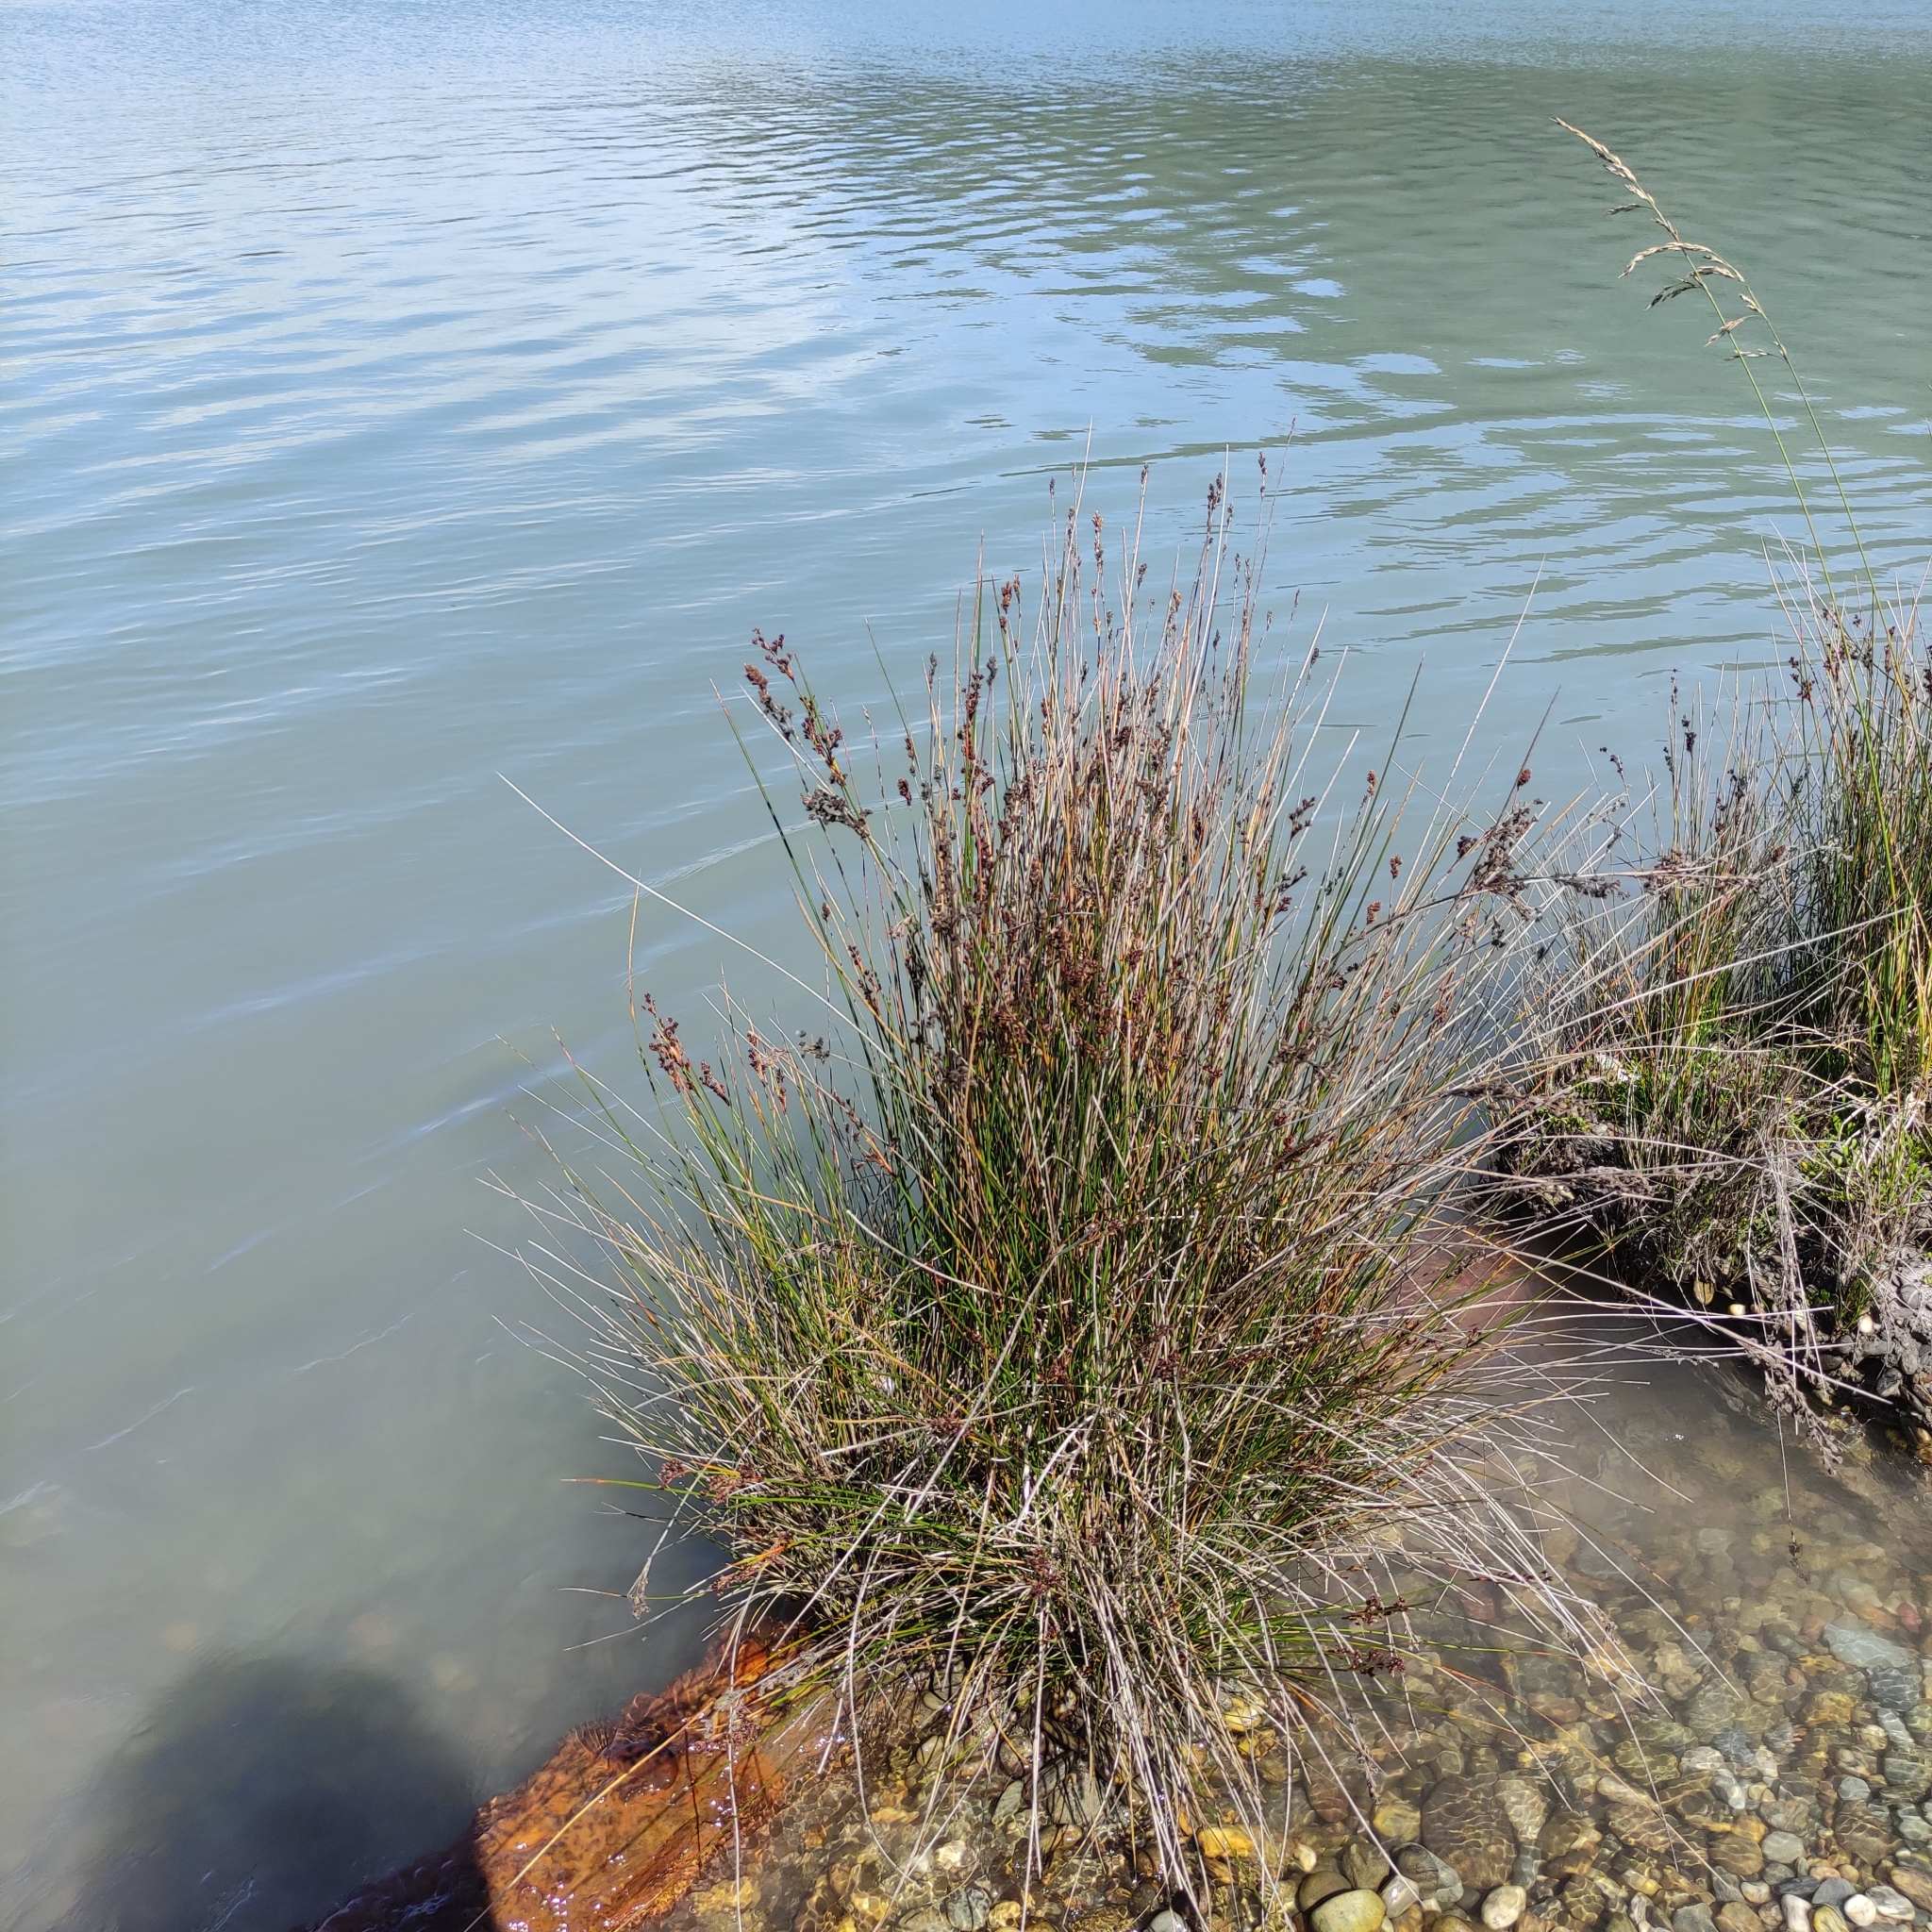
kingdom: Plantae
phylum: Tracheophyta
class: Liliopsida
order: Poales
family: Juncaceae
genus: Juncus
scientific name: Juncus kraussii
